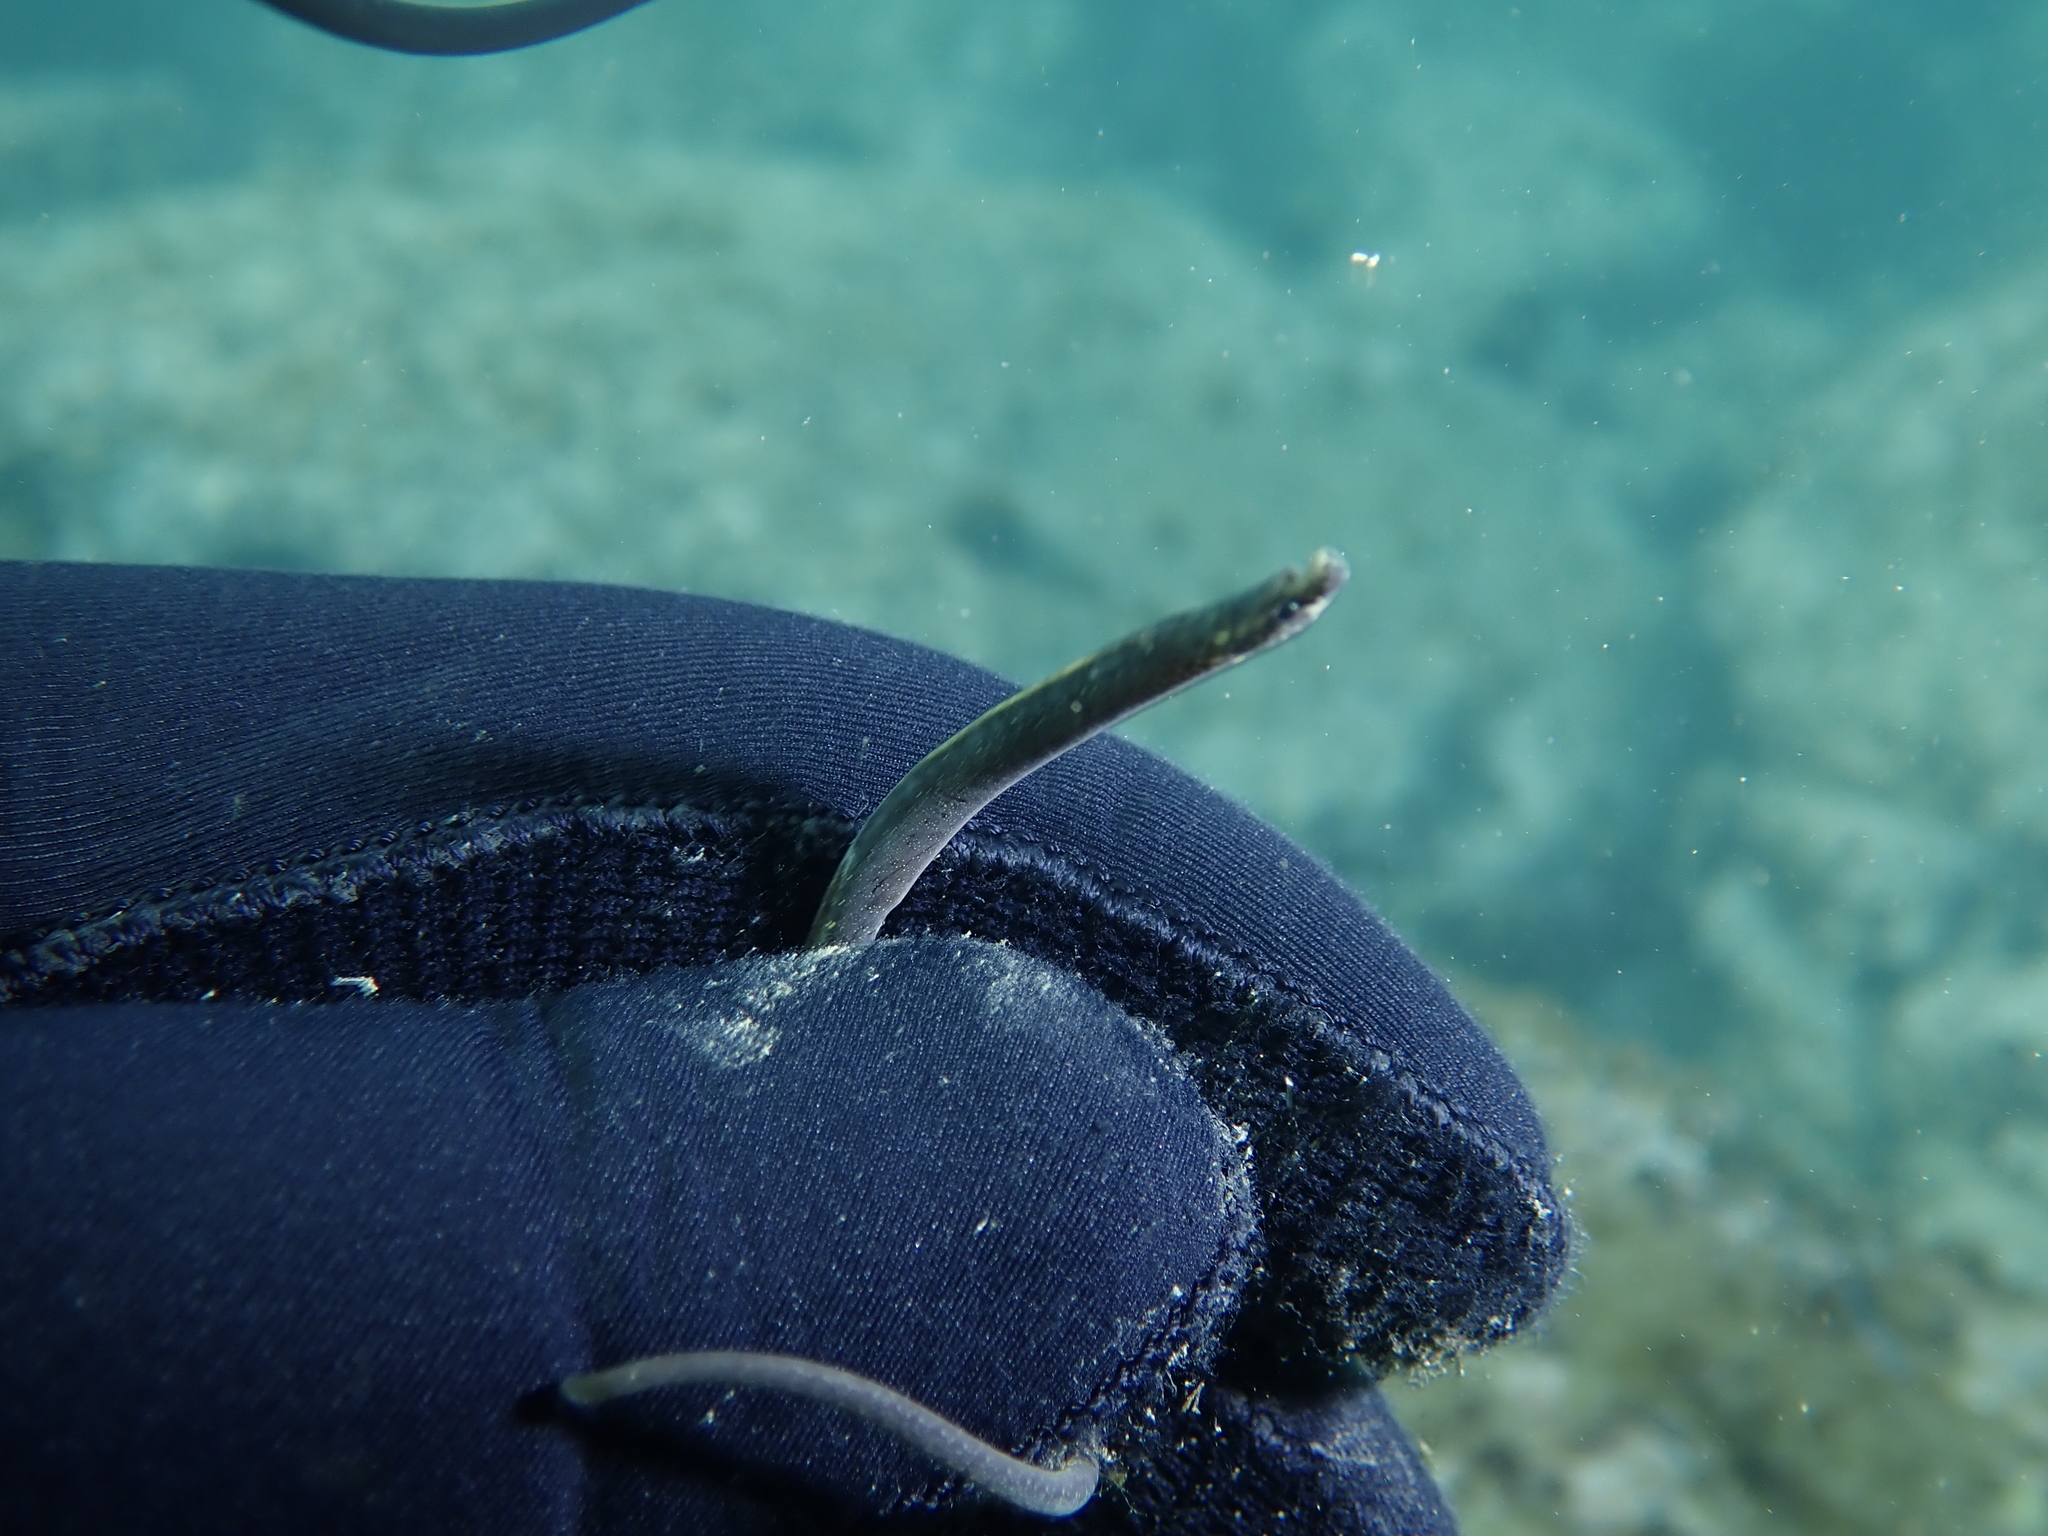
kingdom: Animalia
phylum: Chordata
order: Syngnathiformes
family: Syngnathidae
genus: Nerophis
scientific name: Nerophis lumbriciformis
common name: Worm pipefish
